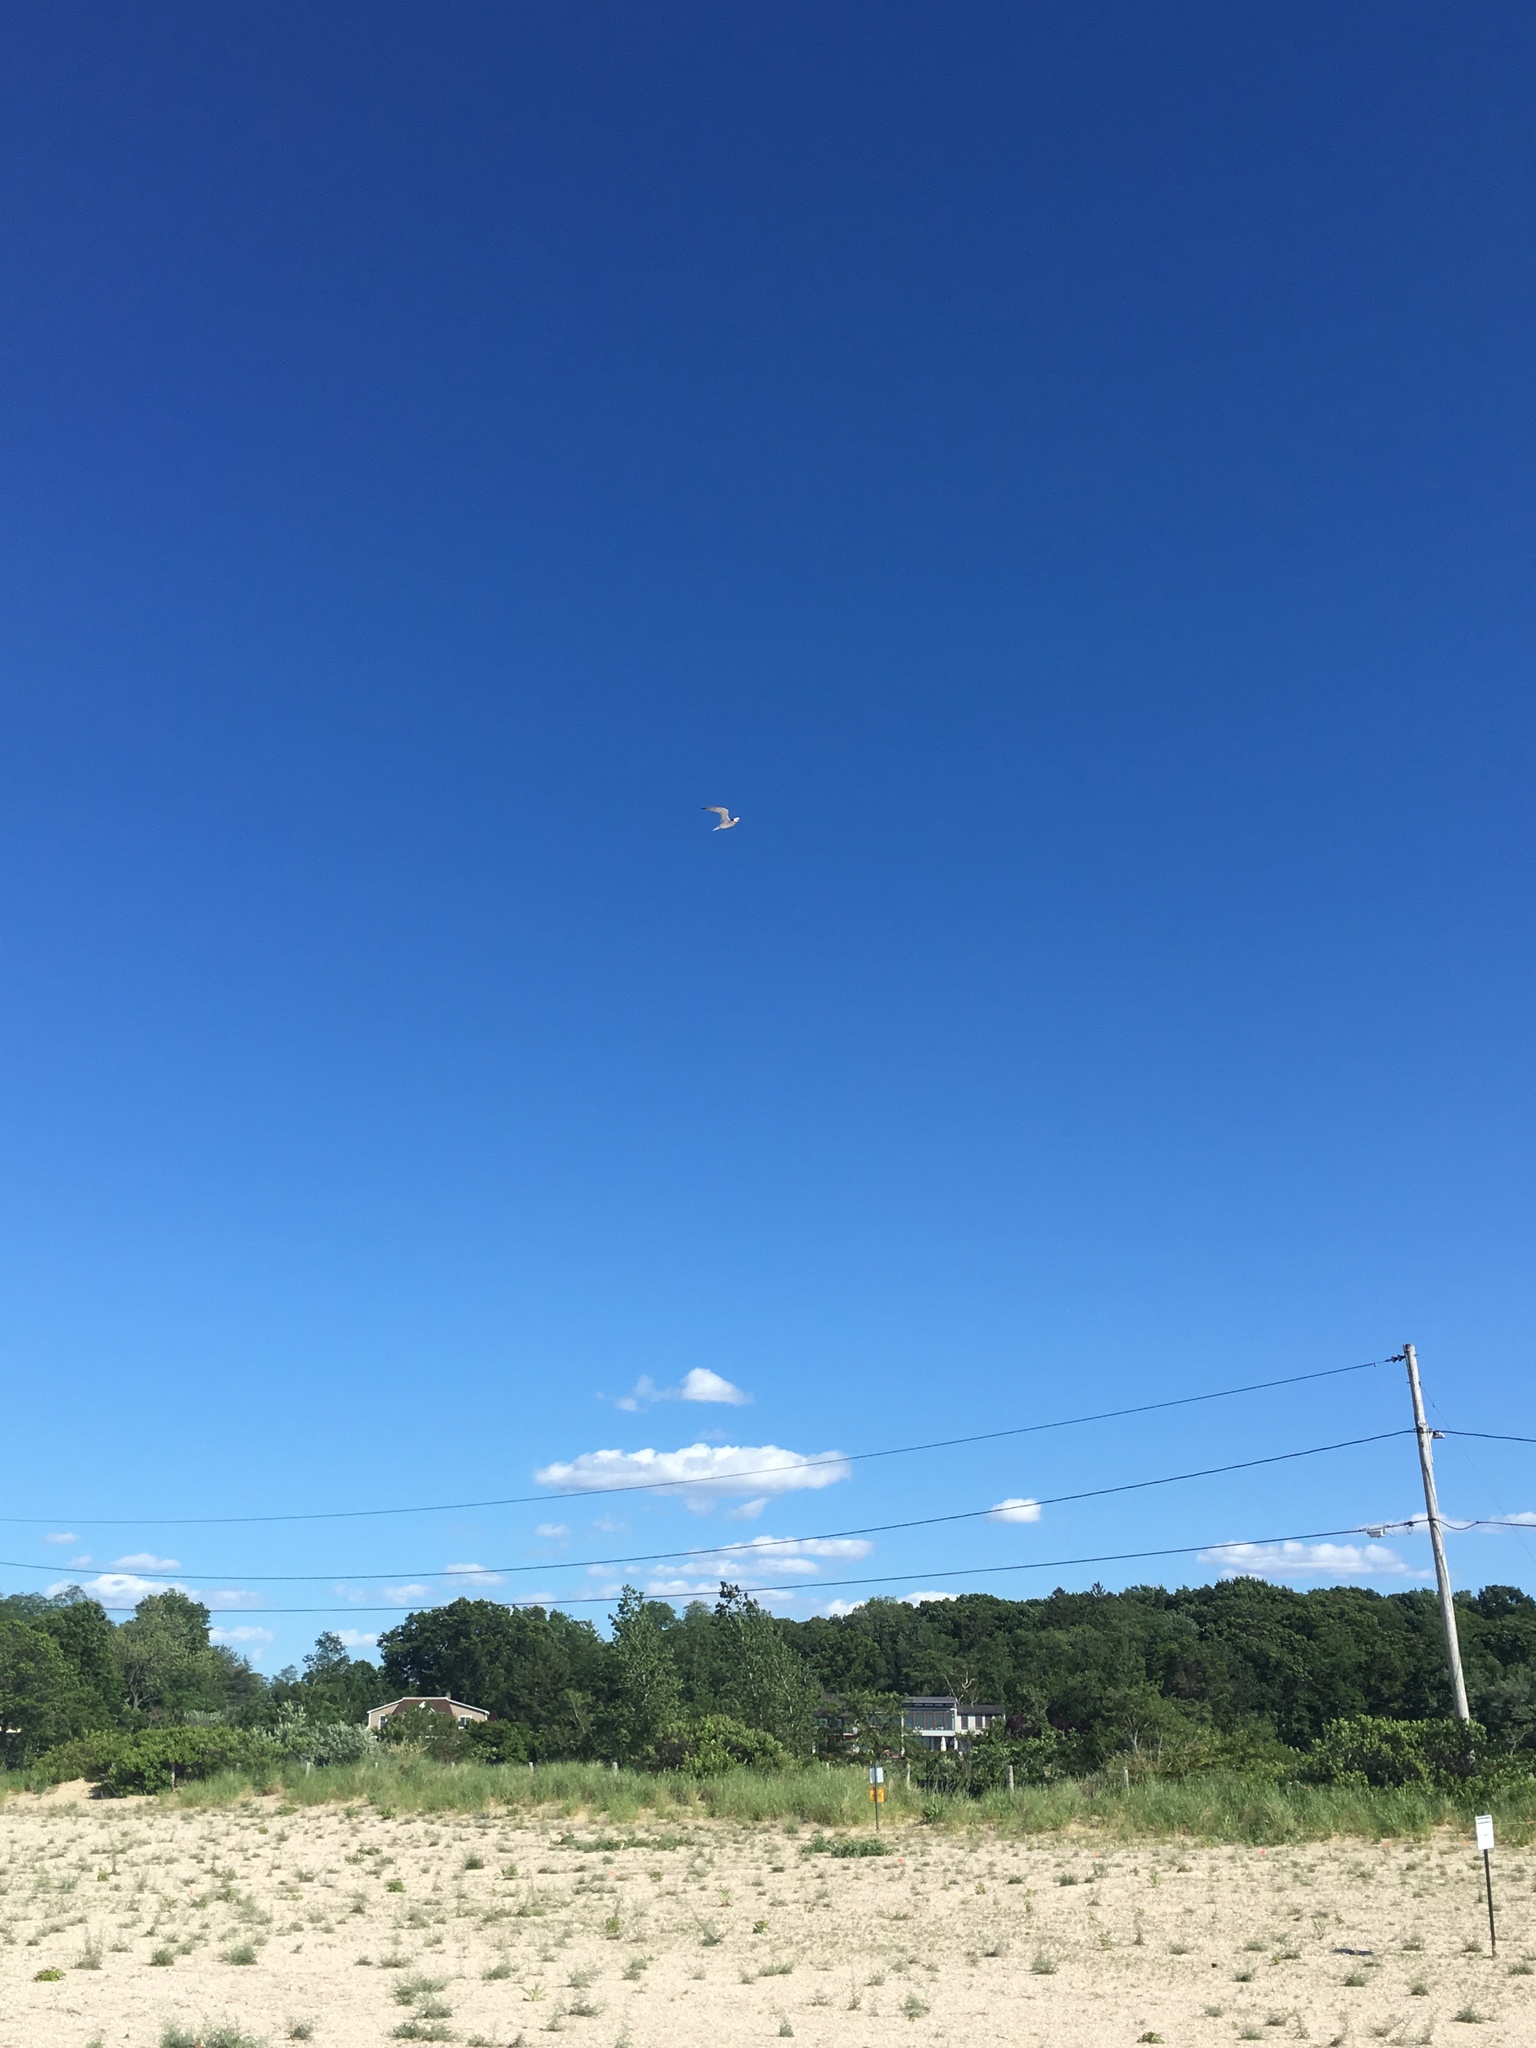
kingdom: Animalia
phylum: Chordata
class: Aves
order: Charadriiformes
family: Laridae
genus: Sternula
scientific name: Sternula antillarum
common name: Least tern
